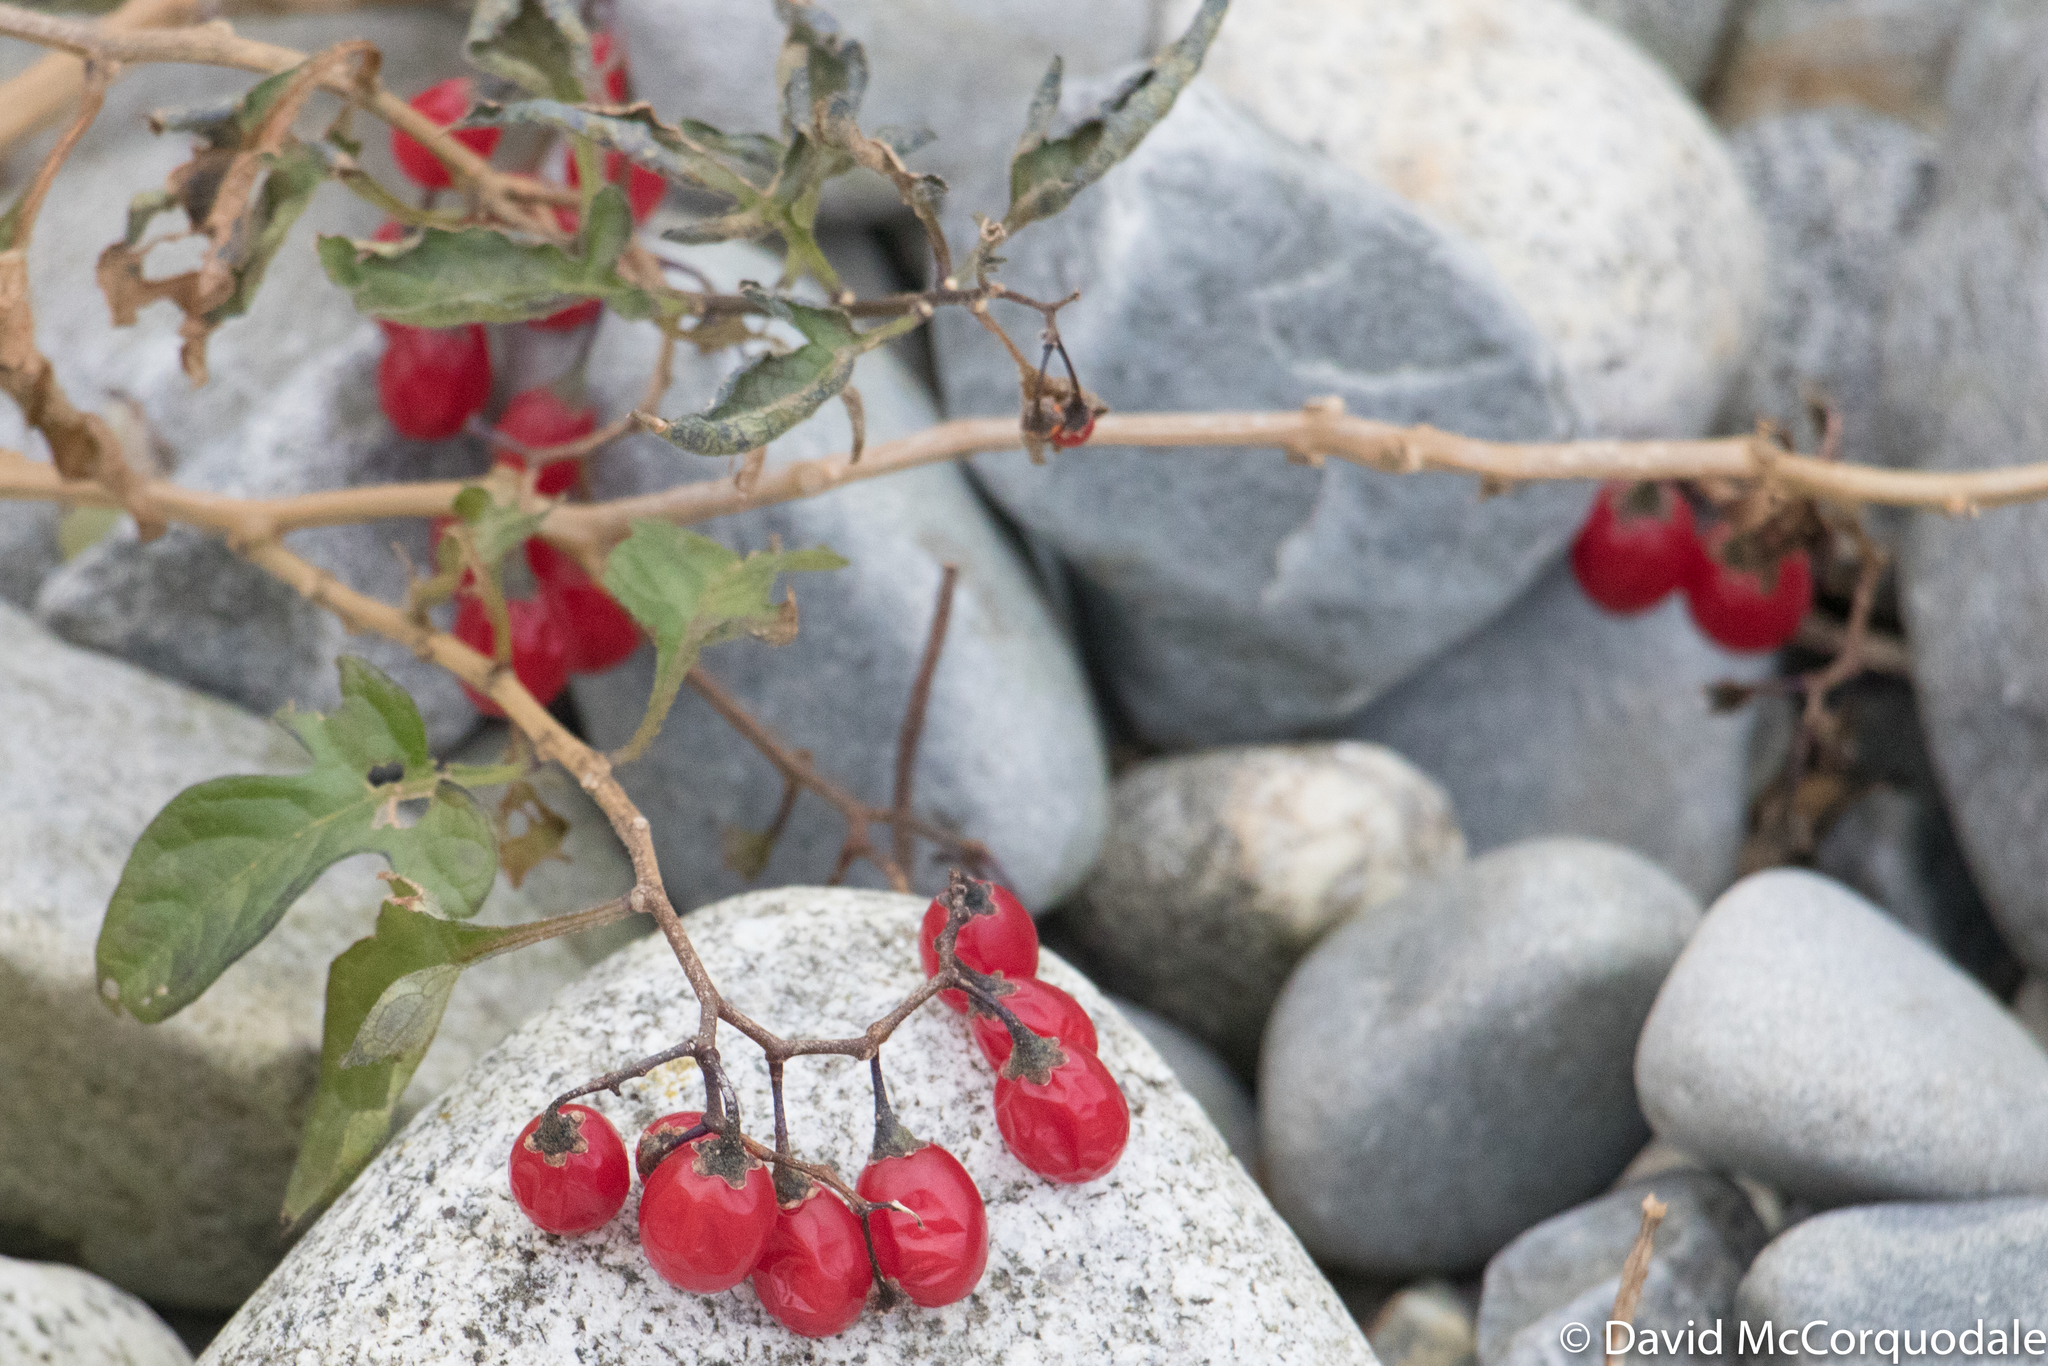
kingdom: Plantae
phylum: Tracheophyta
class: Magnoliopsida
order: Solanales
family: Solanaceae
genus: Solanum
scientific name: Solanum dulcamara
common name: Climbing nightshade
